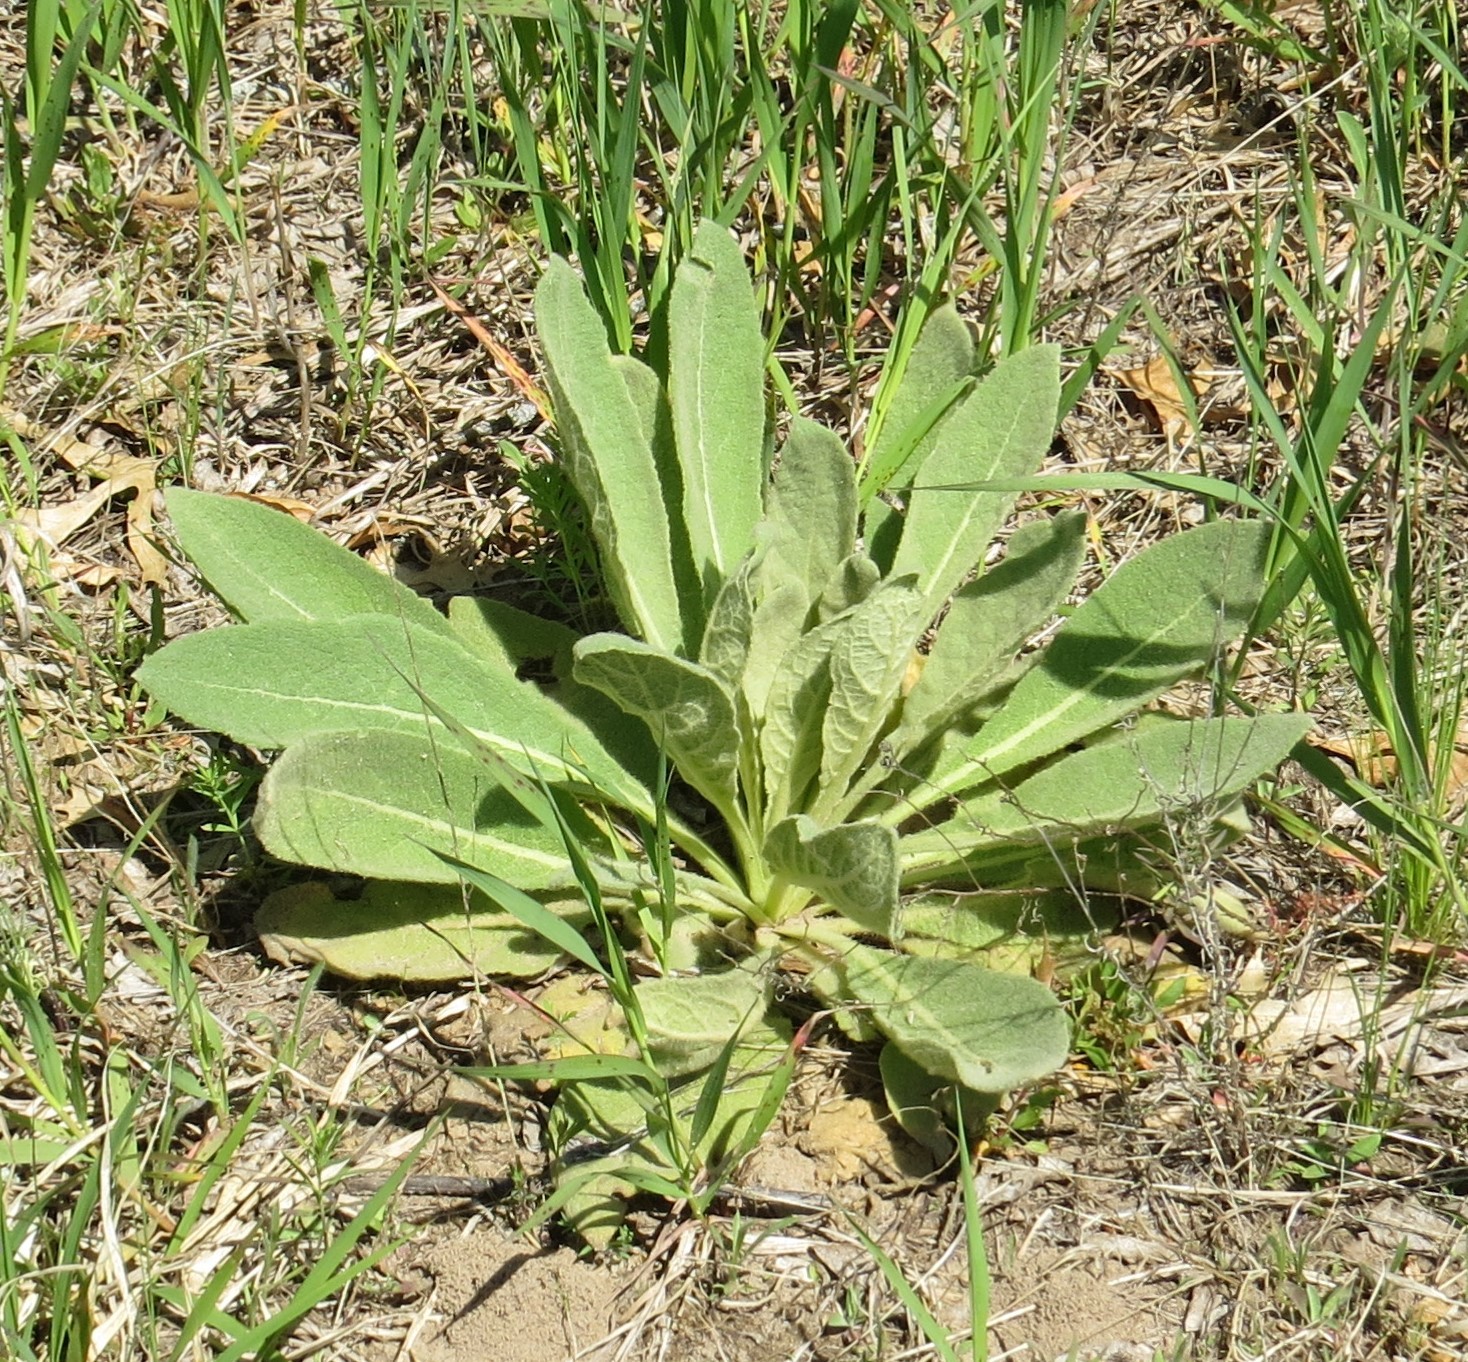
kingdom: Plantae
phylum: Tracheophyta
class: Magnoliopsida
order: Lamiales
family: Scrophulariaceae
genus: Verbascum
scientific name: Verbascum thapsus
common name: Common mullein
